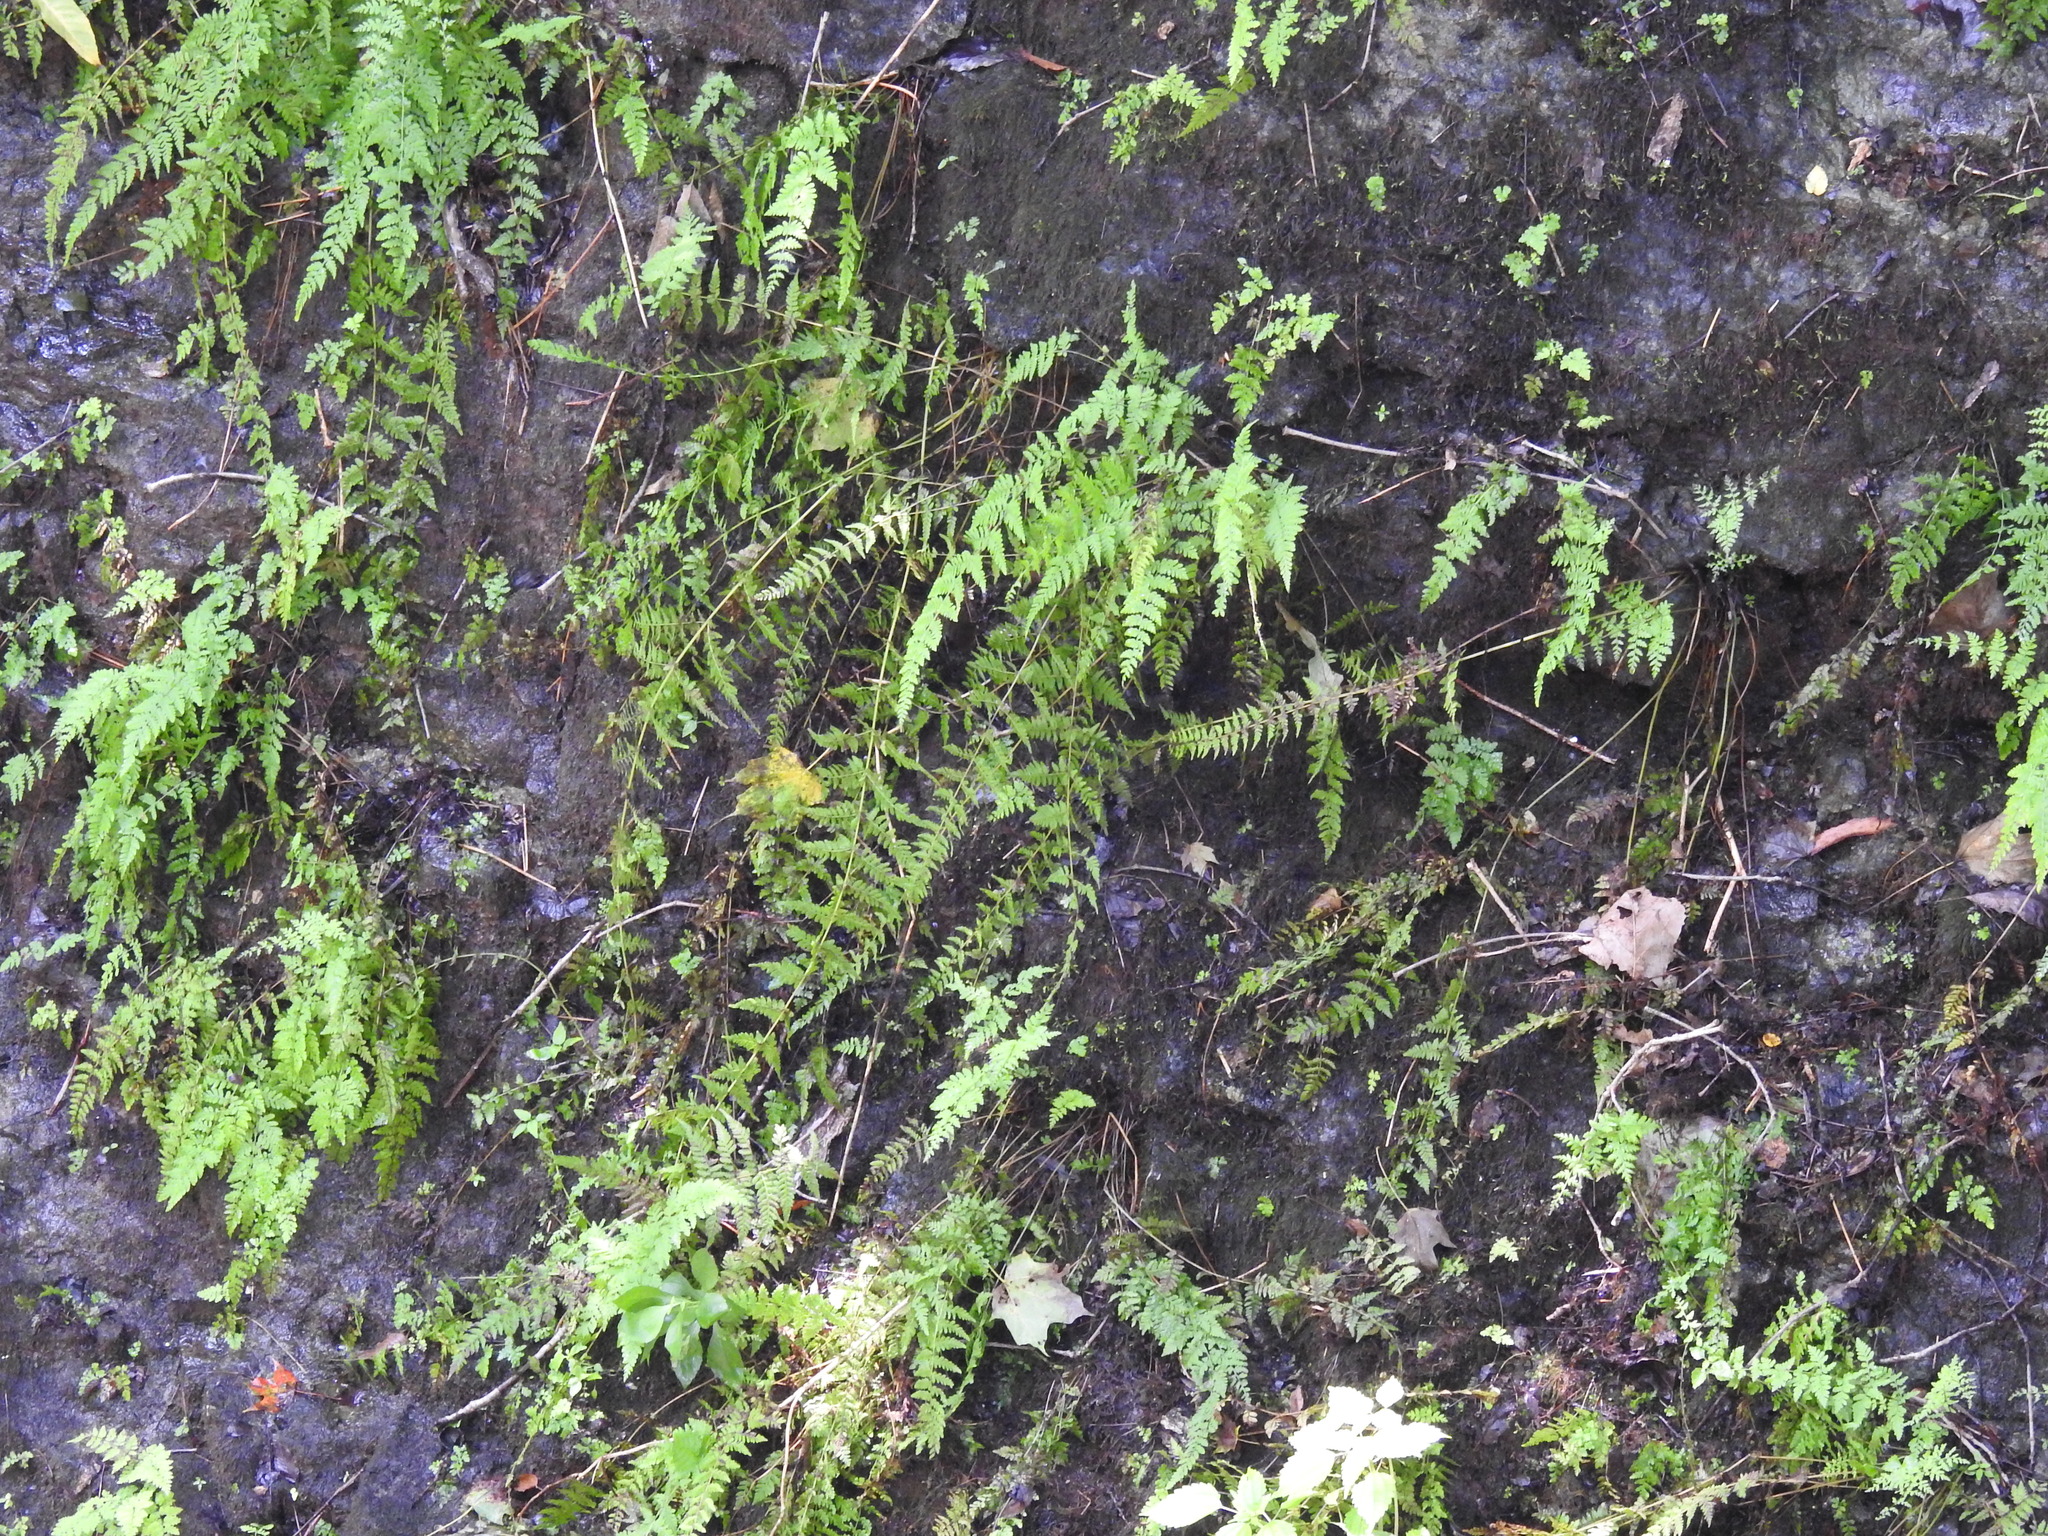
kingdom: Plantae
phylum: Tracheophyta
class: Polypodiopsida
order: Polypodiales
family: Cystopteridaceae
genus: Cystopteris
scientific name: Cystopteris bulbifera
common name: Bulblet bladder fern
